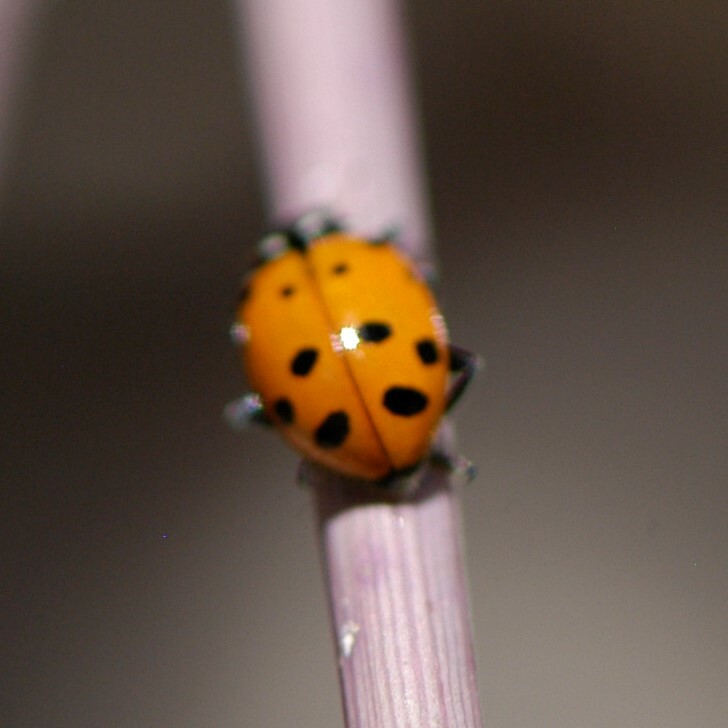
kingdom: Animalia
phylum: Arthropoda
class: Insecta
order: Coleoptera
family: Coccinellidae
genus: Hippodamia
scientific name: Hippodamia convergens
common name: Convergent lady beetle
